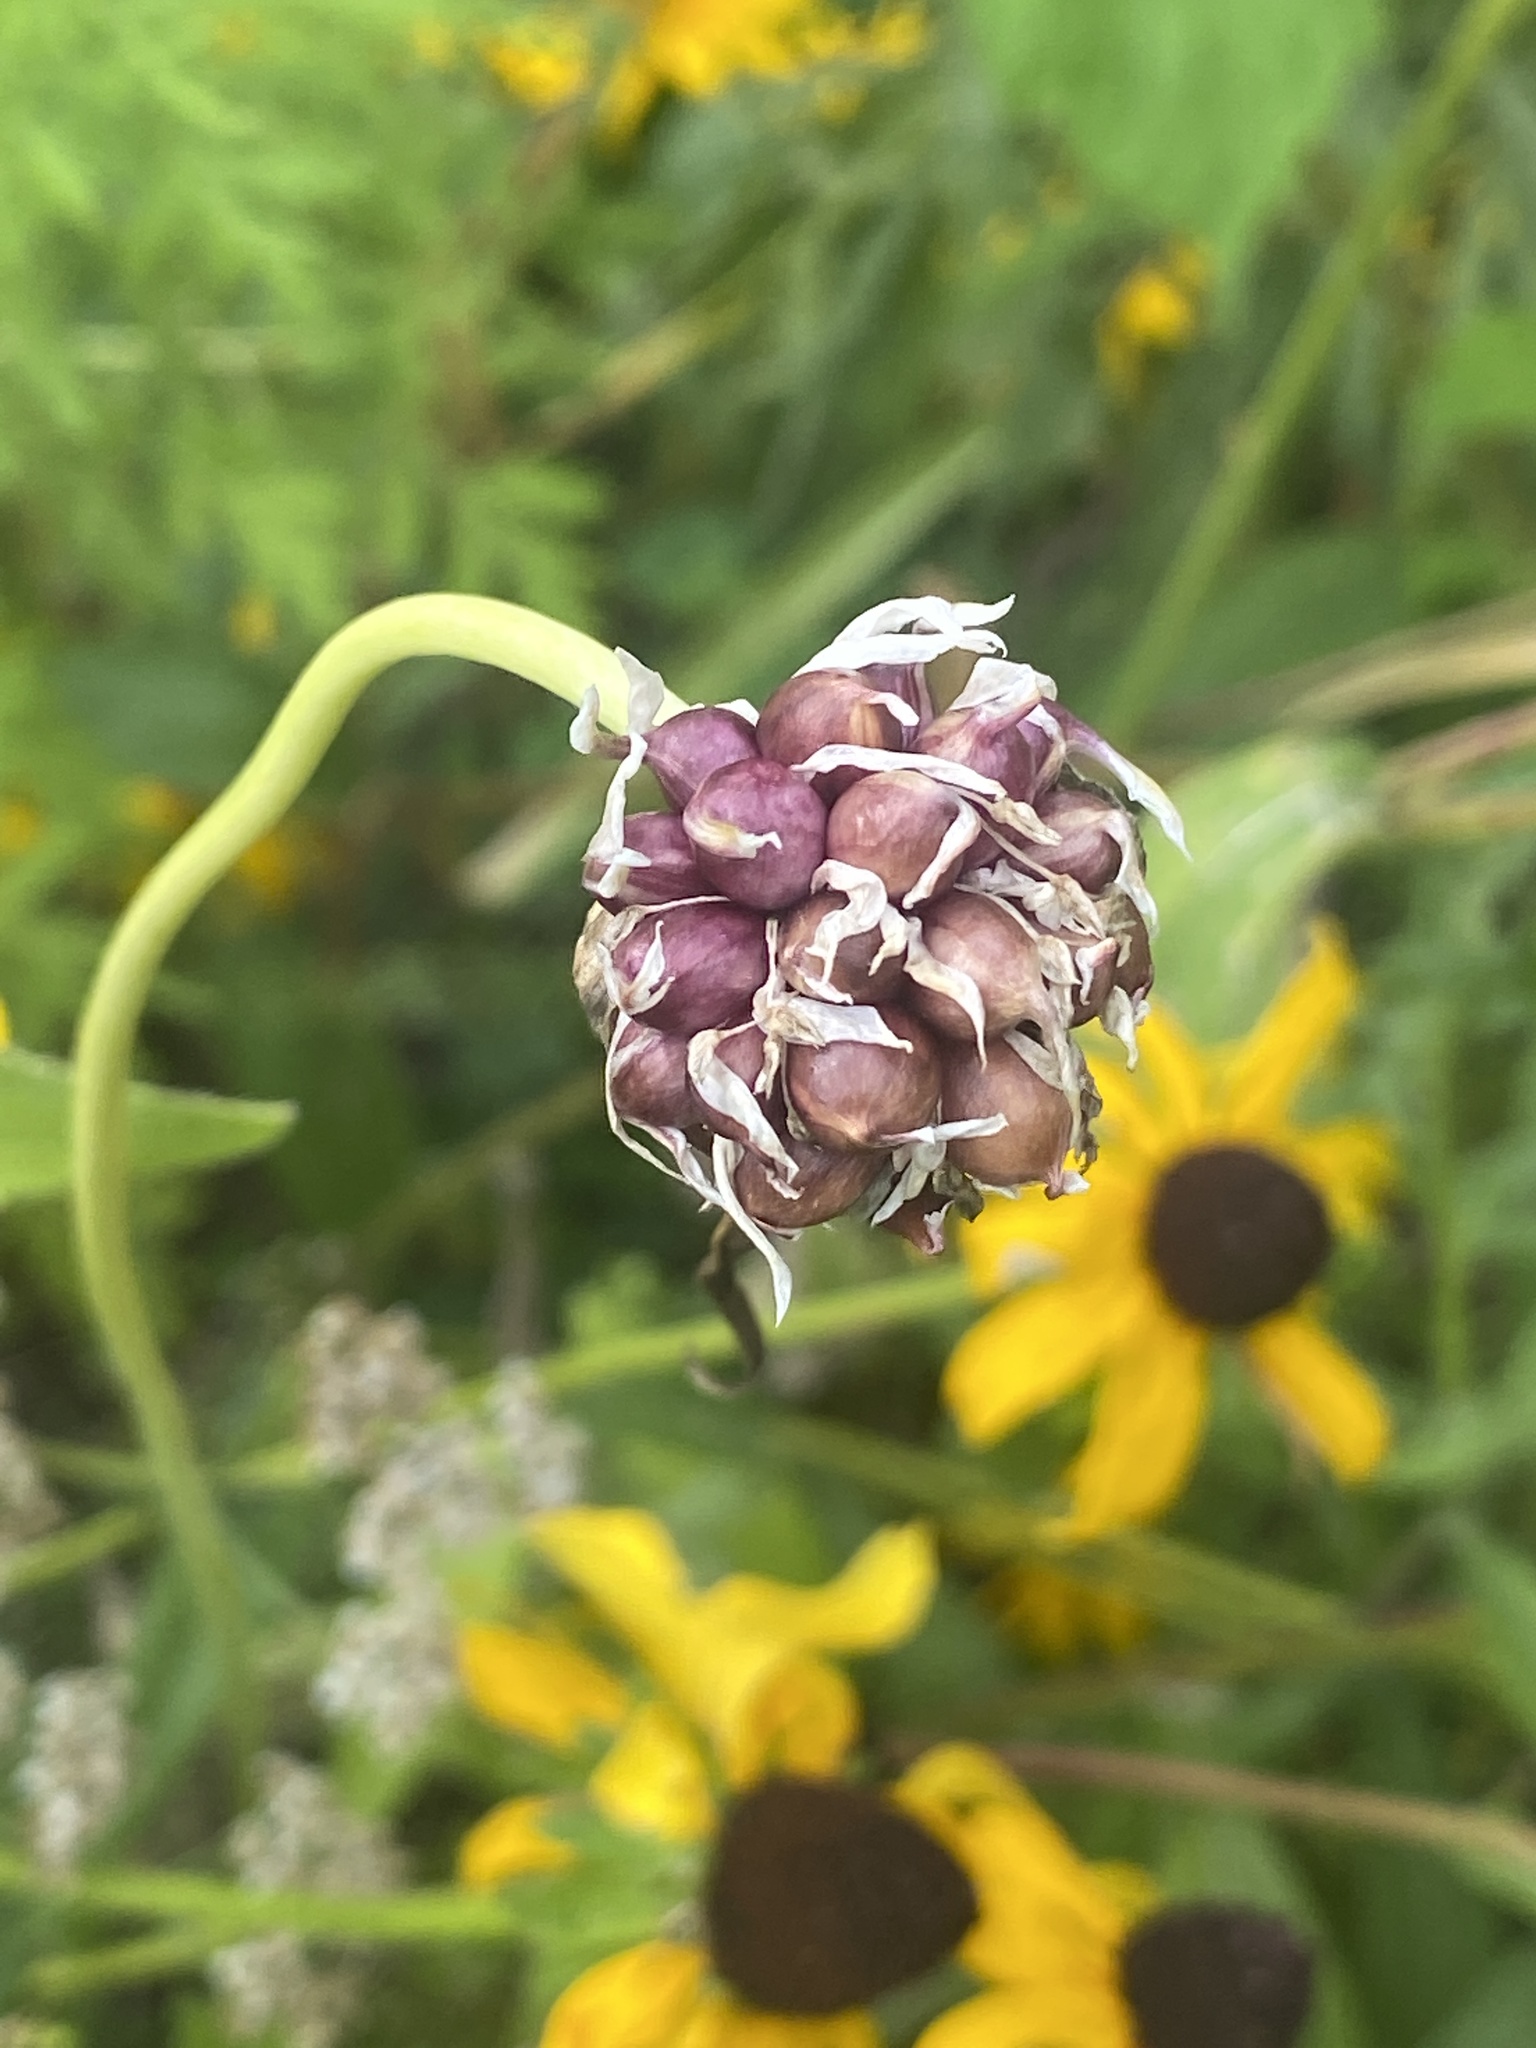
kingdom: Plantae
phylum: Tracheophyta
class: Liliopsida
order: Asparagales
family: Amaryllidaceae
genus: Allium
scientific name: Allium vineale
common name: Crow garlic
